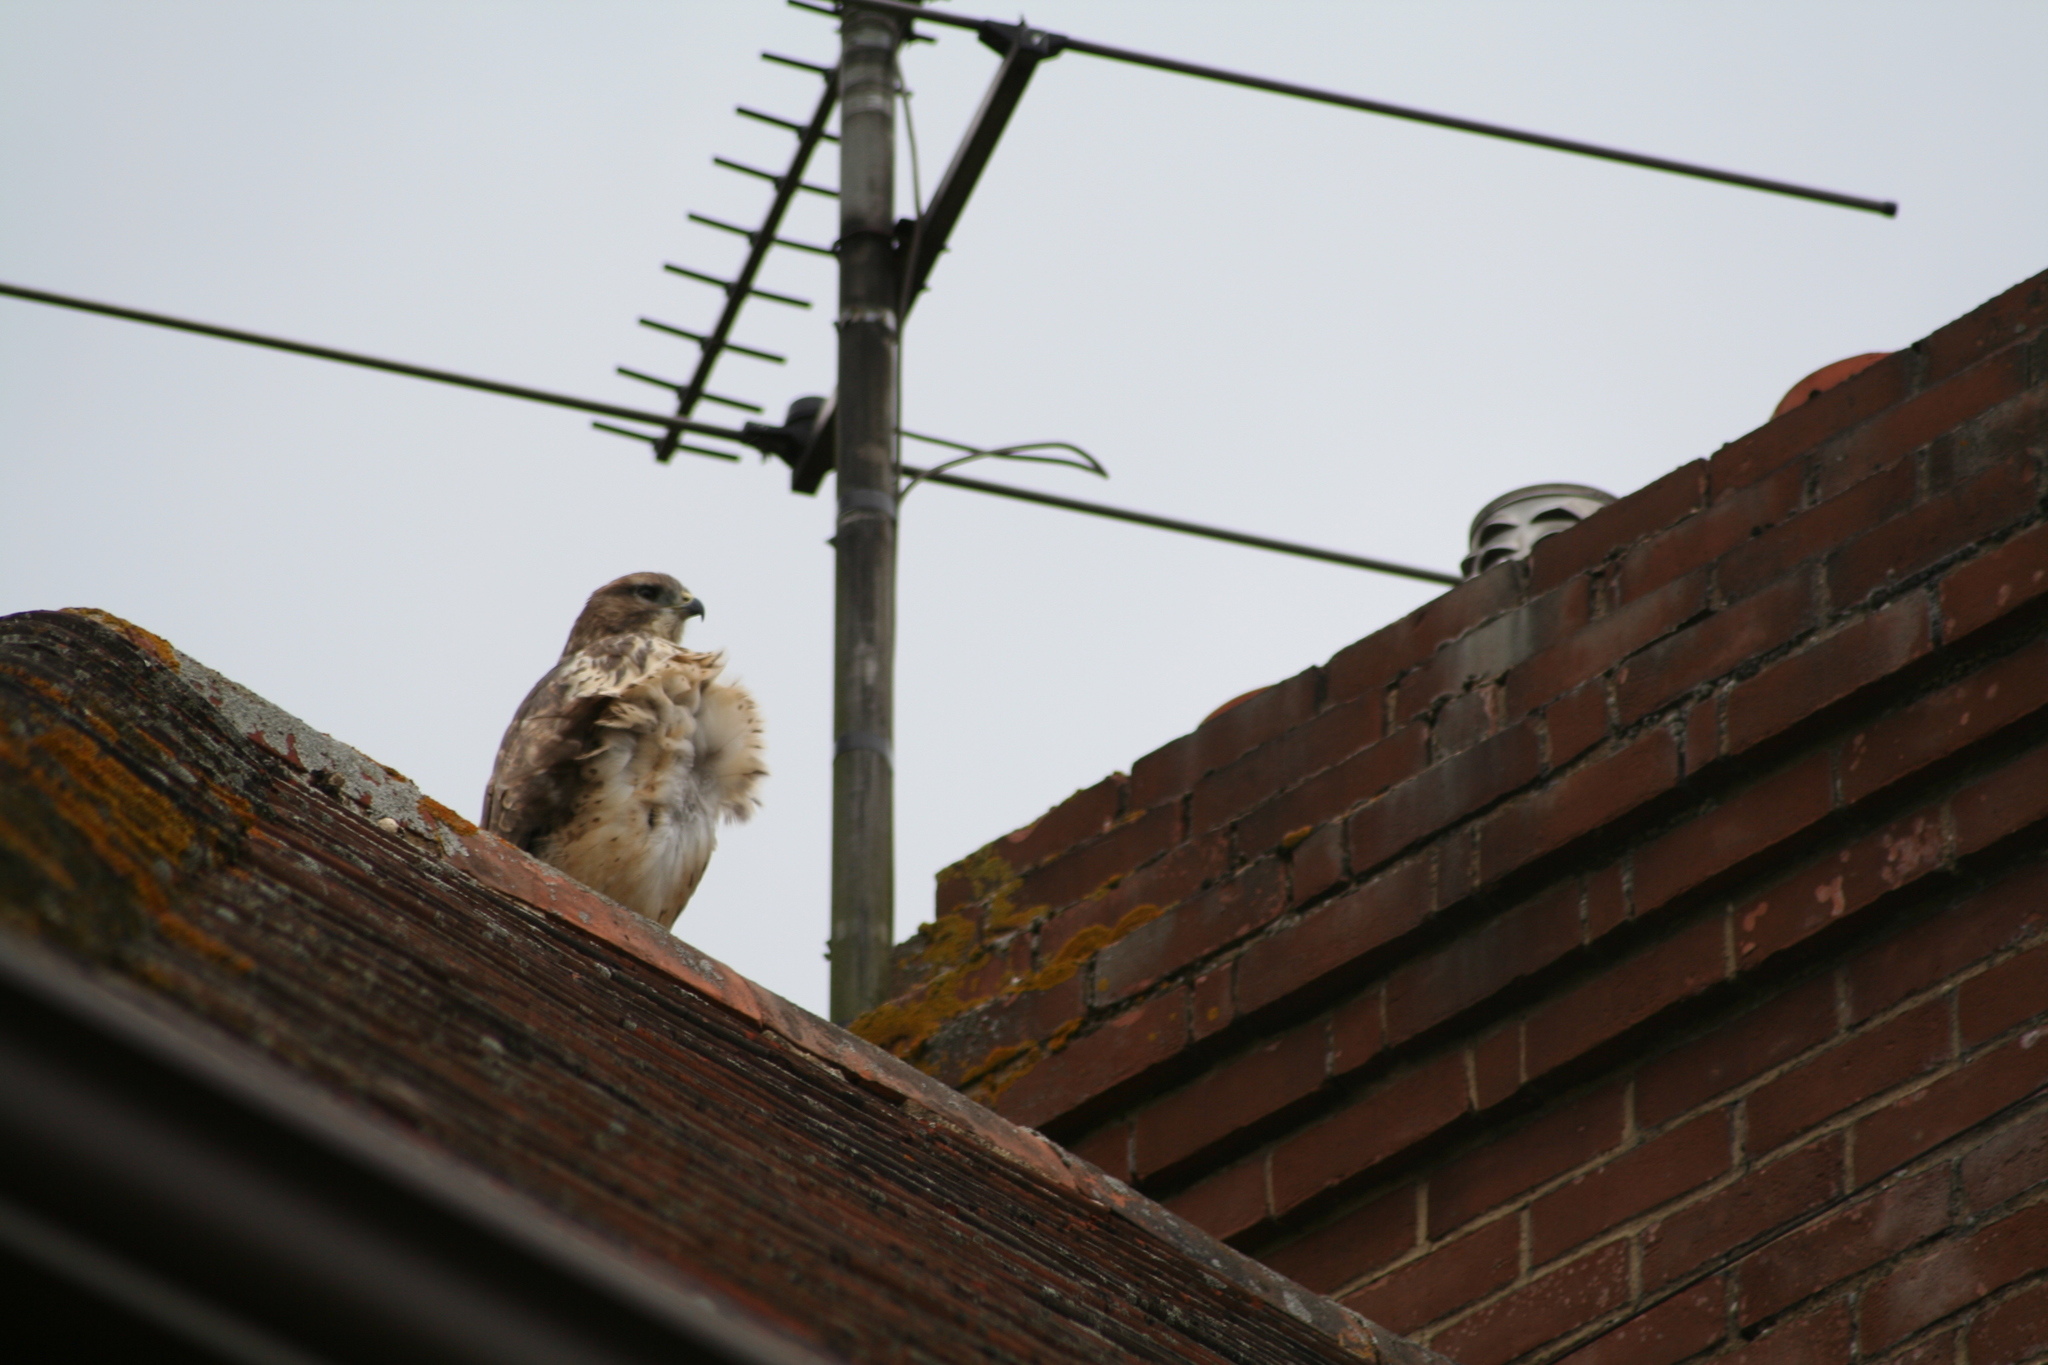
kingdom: Animalia
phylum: Chordata
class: Aves
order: Accipitriformes
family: Accipitridae
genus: Buteo
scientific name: Buteo buteo
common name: Common buzzard
